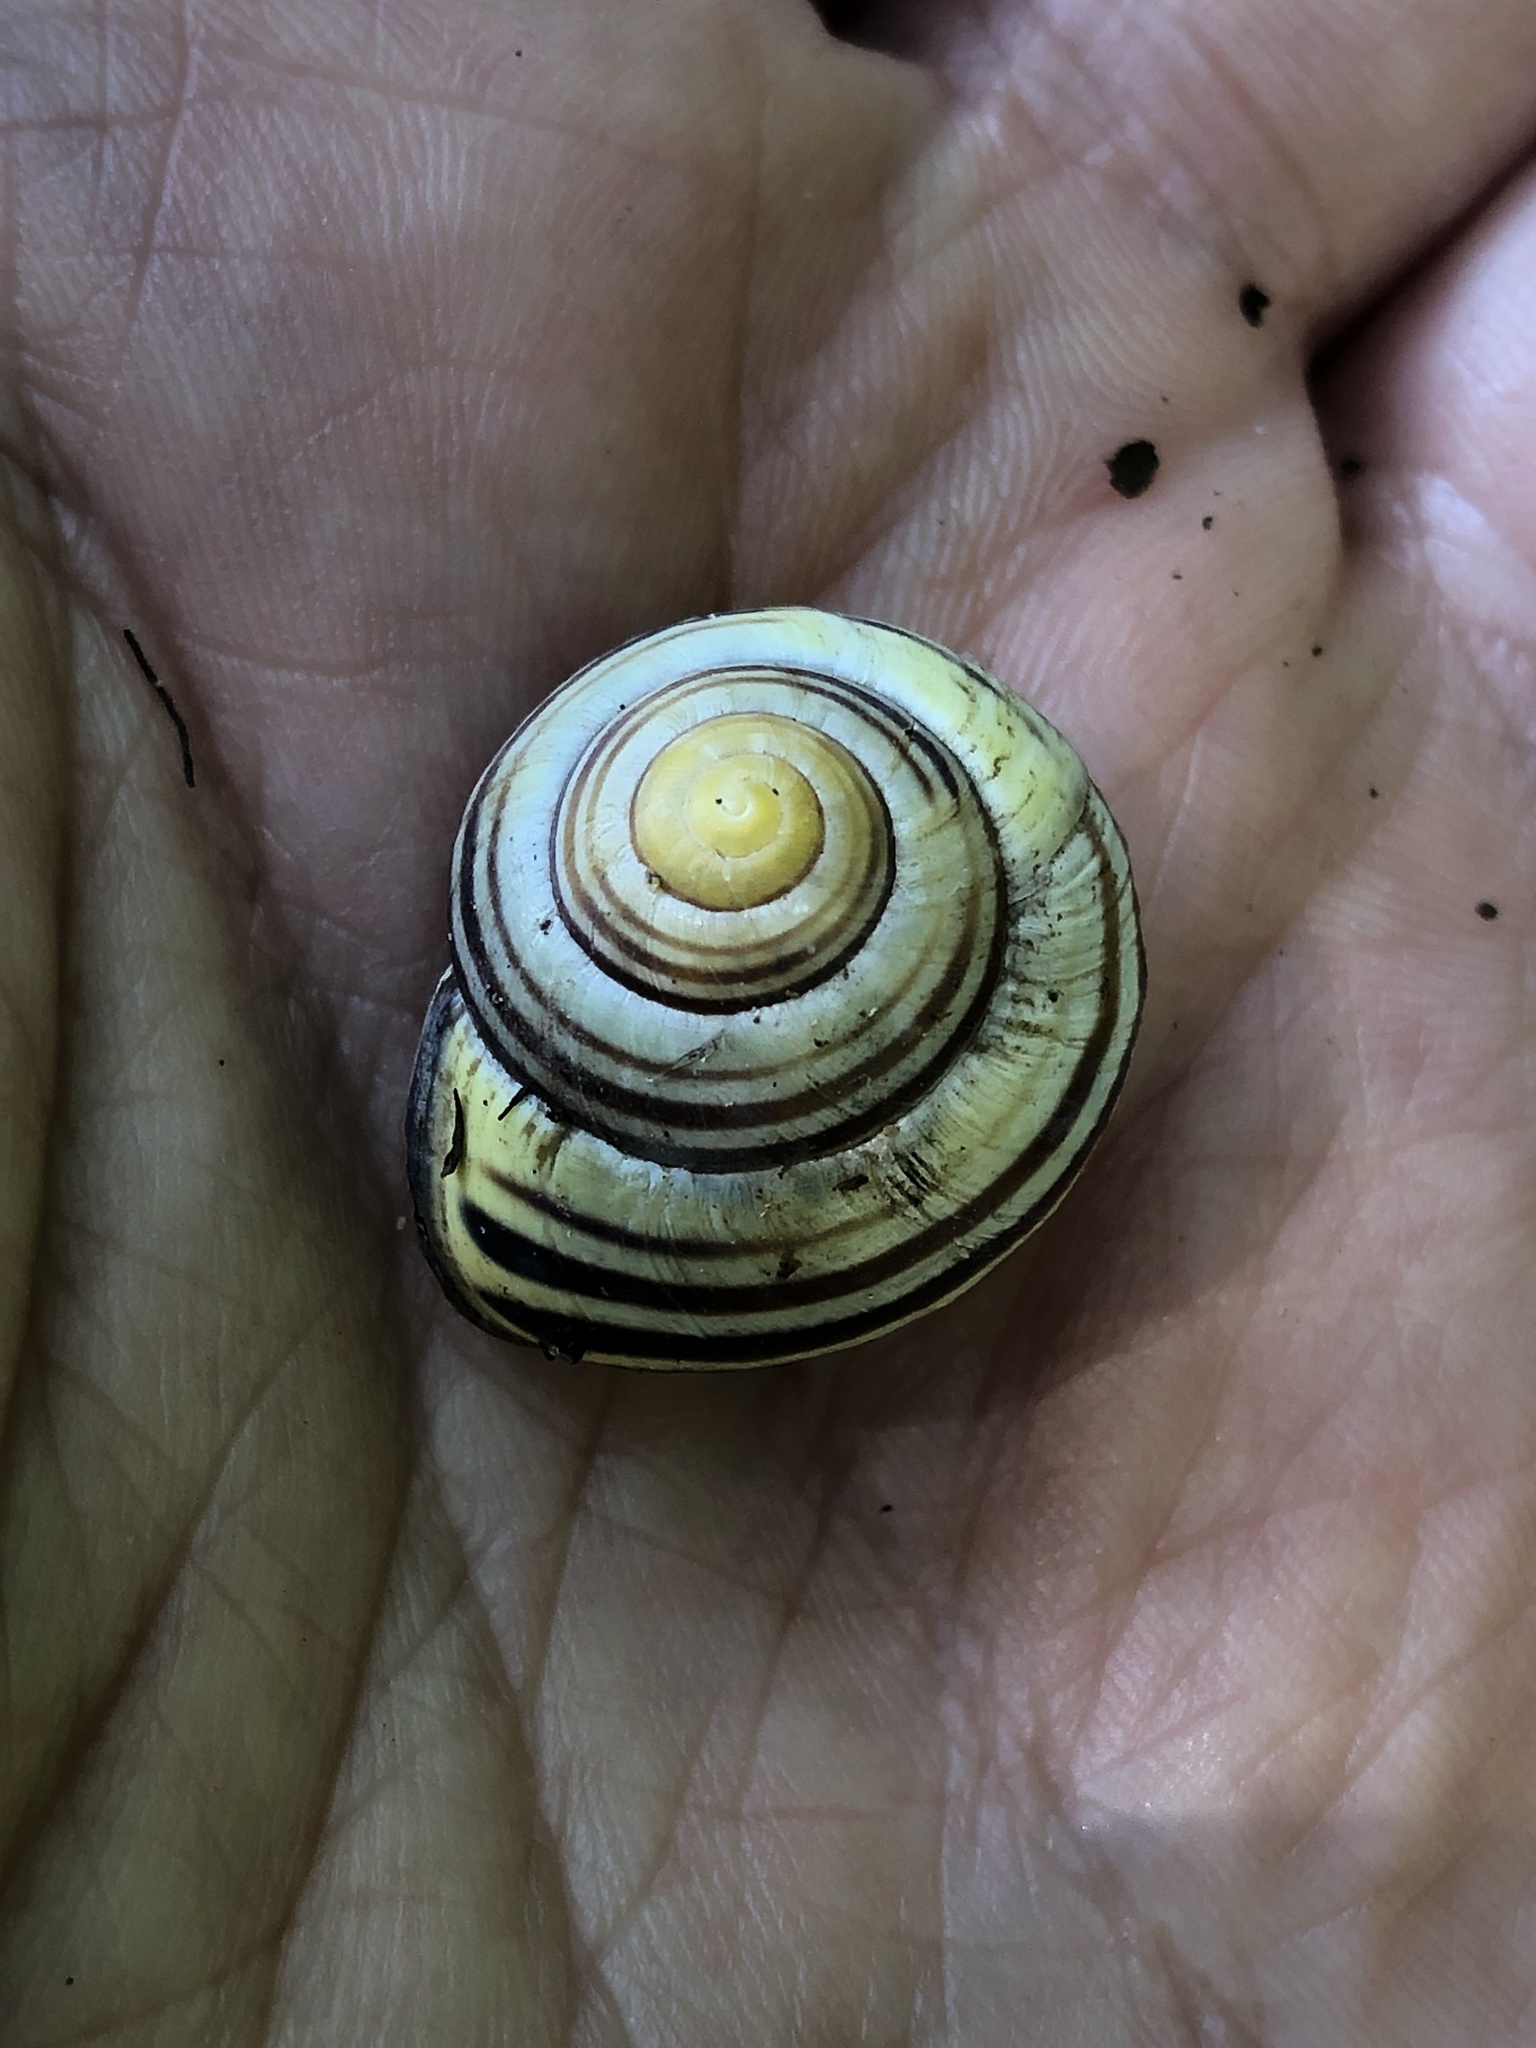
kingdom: Animalia
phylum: Mollusca
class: Gastropoda
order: Stylommatophora
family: Helicidae
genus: Cepaea
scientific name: Cepaea nemoralis
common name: Grovesnail
